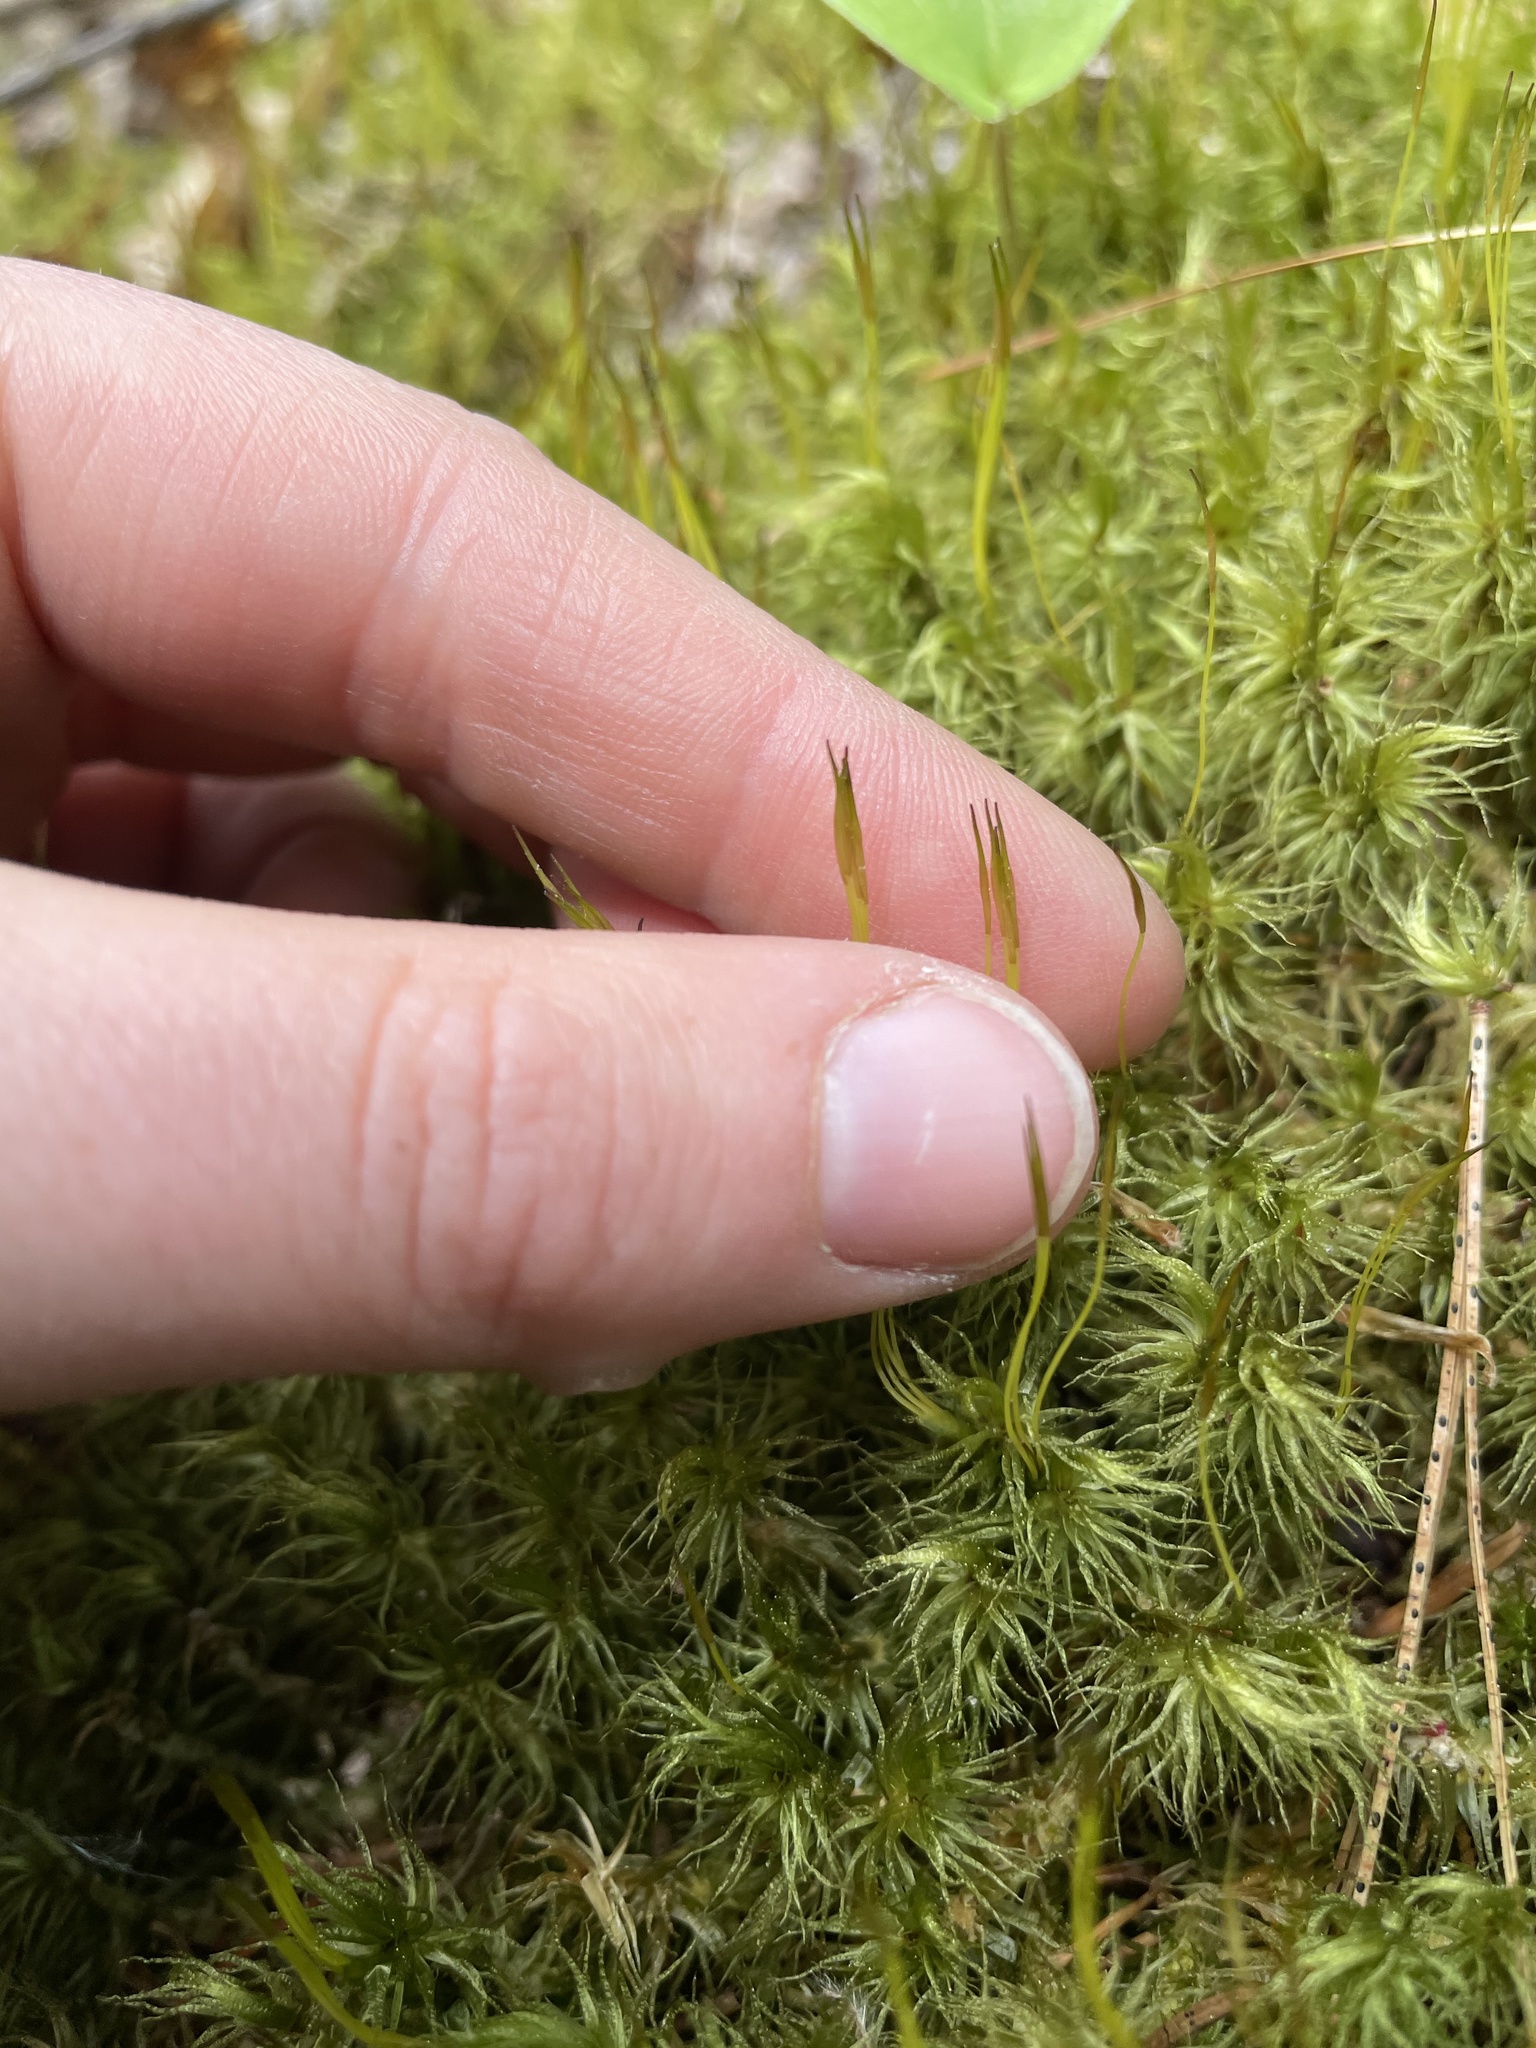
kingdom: Plantae
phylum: Bryophyta
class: Bryopsida
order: Dicranales
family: Dicranaceae
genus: Dicranum
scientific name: Dicranum polysetum
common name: Rugose fork-moss
